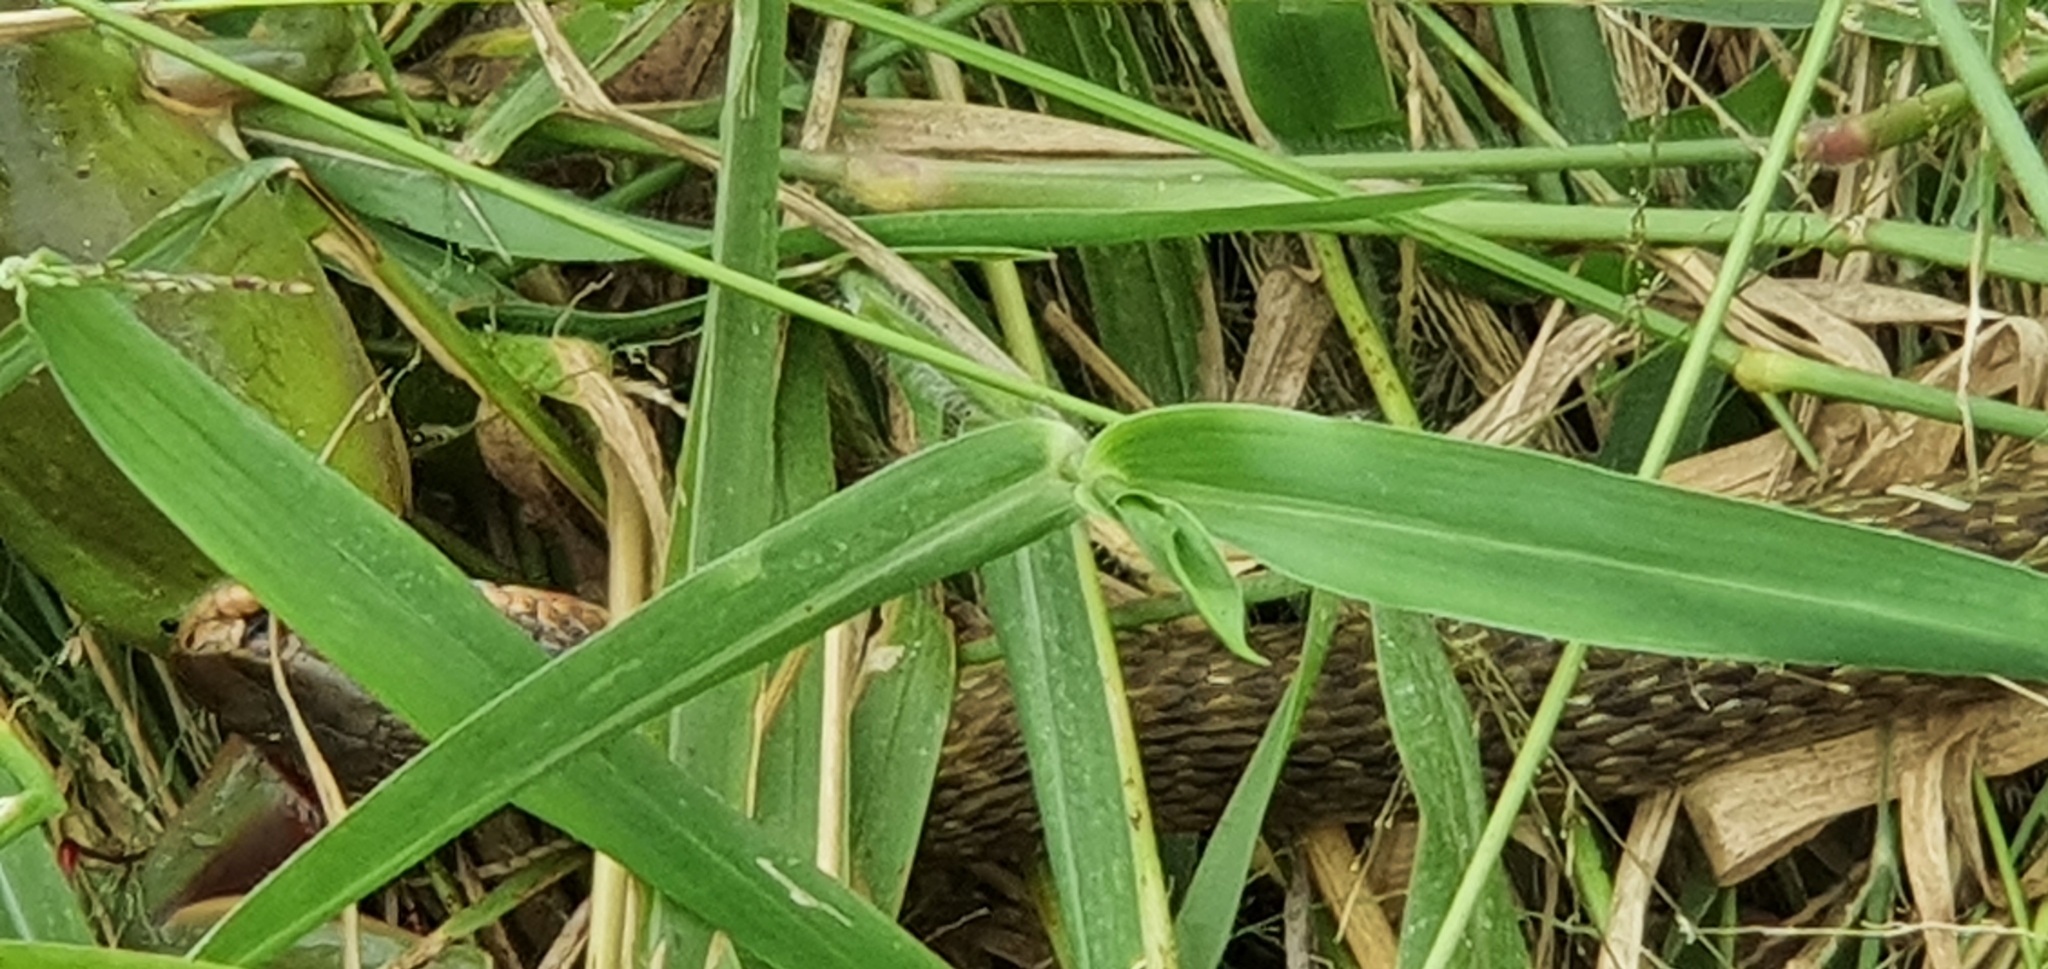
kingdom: Animalia
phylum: Chordata
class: Squamata
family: Colubridae
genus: Tropidonophis
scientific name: Tropidonophis mairii
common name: Common keelback
